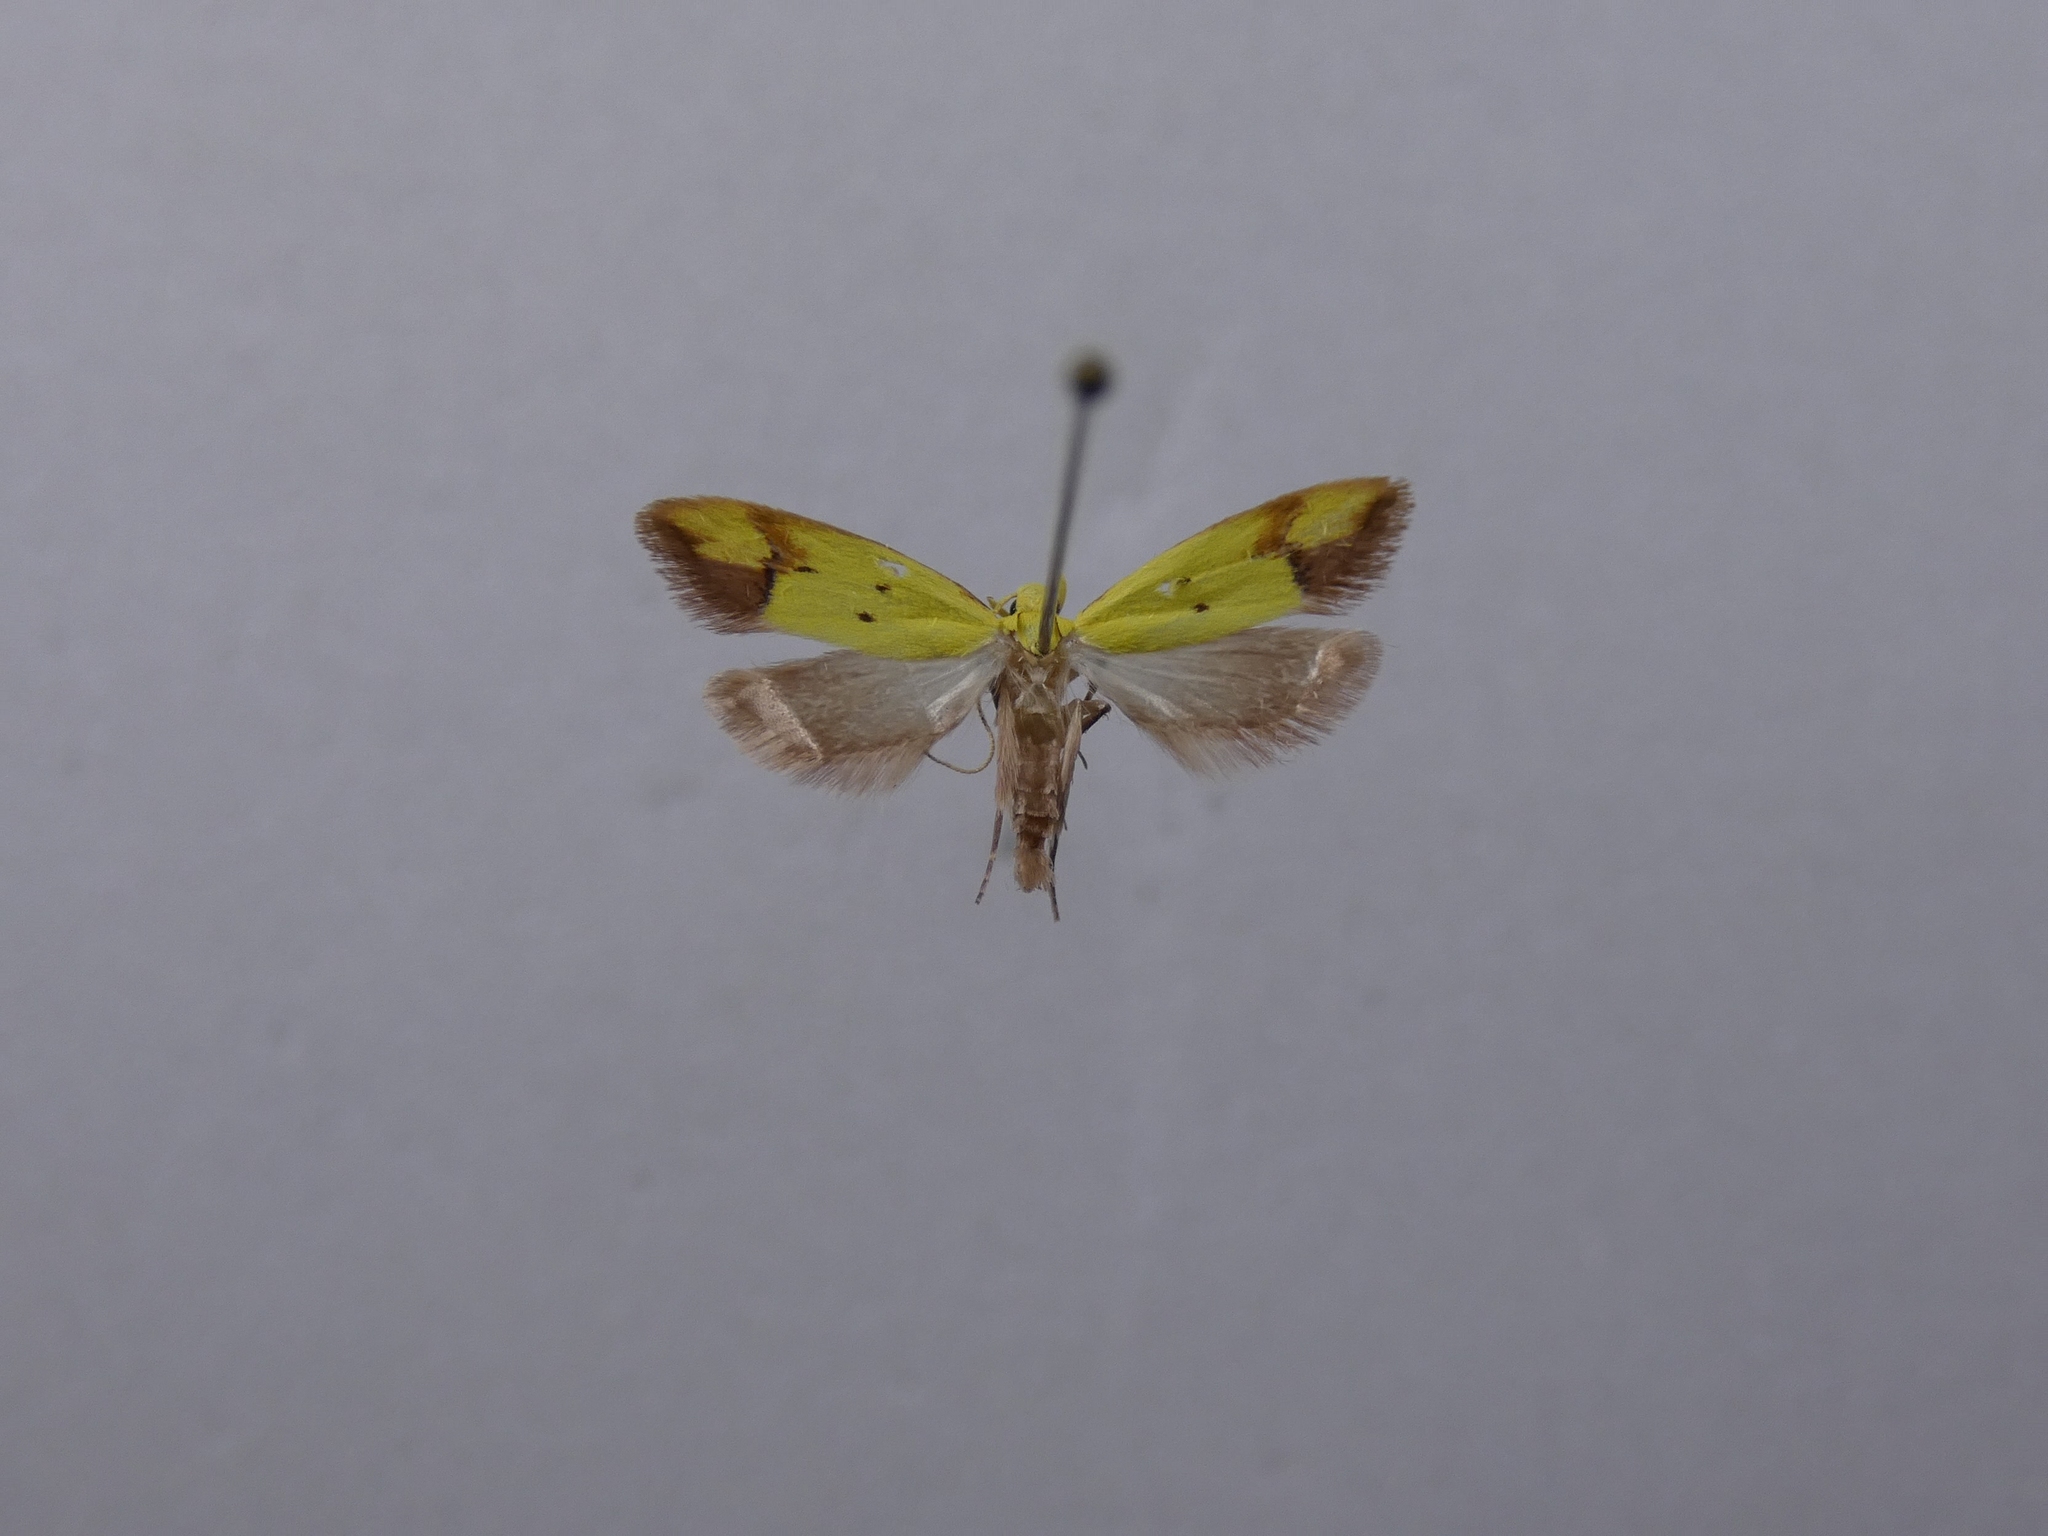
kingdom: Animalia
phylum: Arthropoda
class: Insecta
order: Lepidoptera
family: Oecophoridae
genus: Gymnobathra
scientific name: Gymnobathra flavidella
